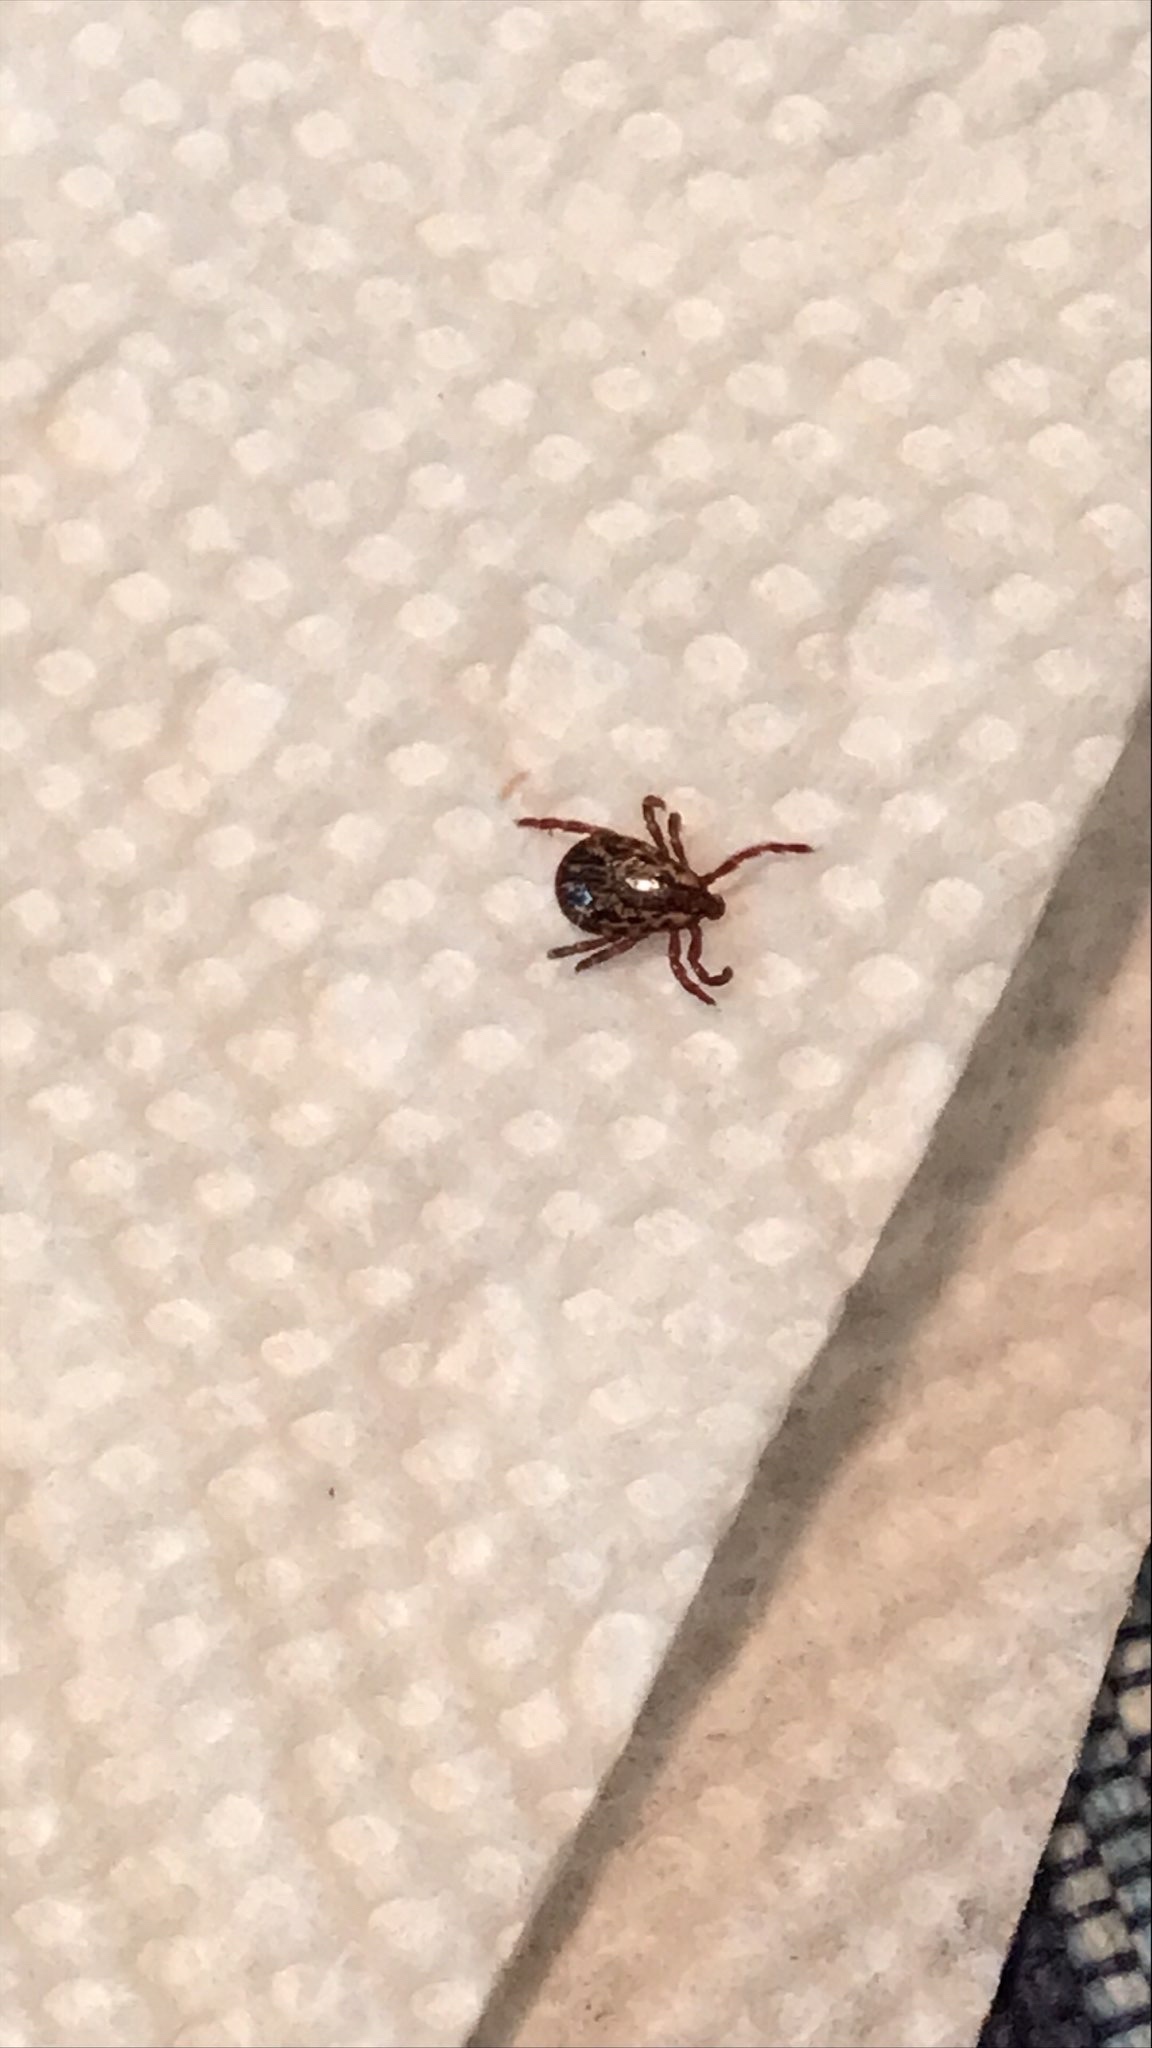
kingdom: Animalia
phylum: Arthropoda
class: Arachnida
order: Ixodida
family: Ixodidae
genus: Dermacentor
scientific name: Dermacentor variabilis
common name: American dog tick
